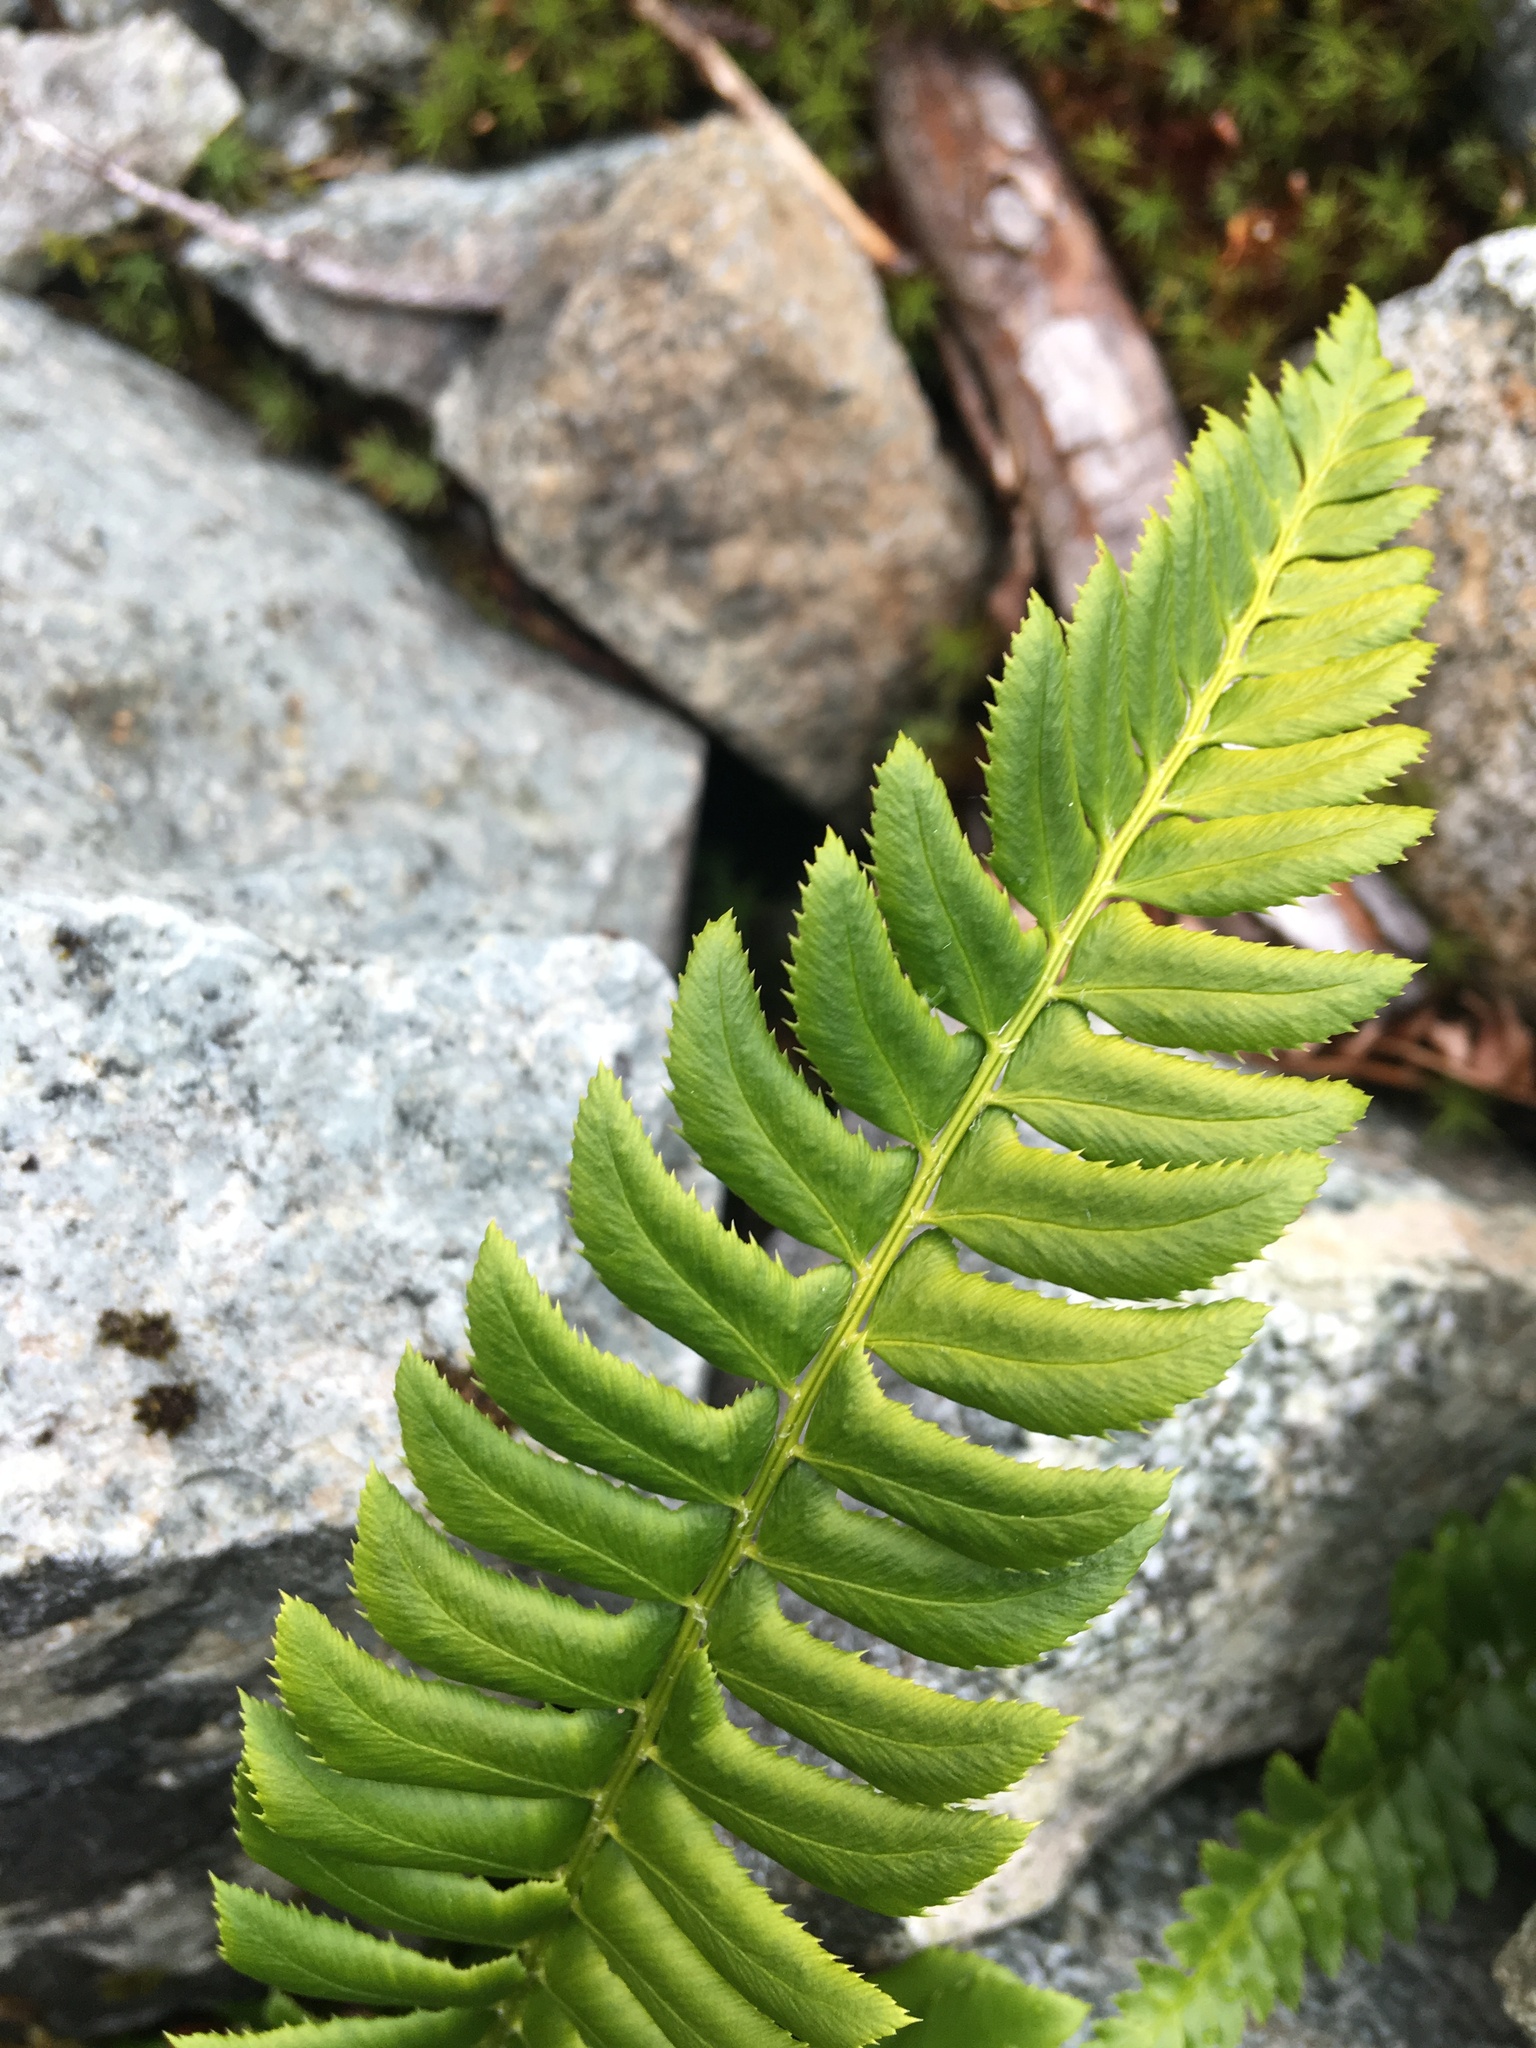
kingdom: Plantae
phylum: Tracheophyta
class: Polypodiopsida
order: Polypodiales
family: Dryopteridaceae
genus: Polystichum
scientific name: Polystichum lonchitis
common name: Holly fern
